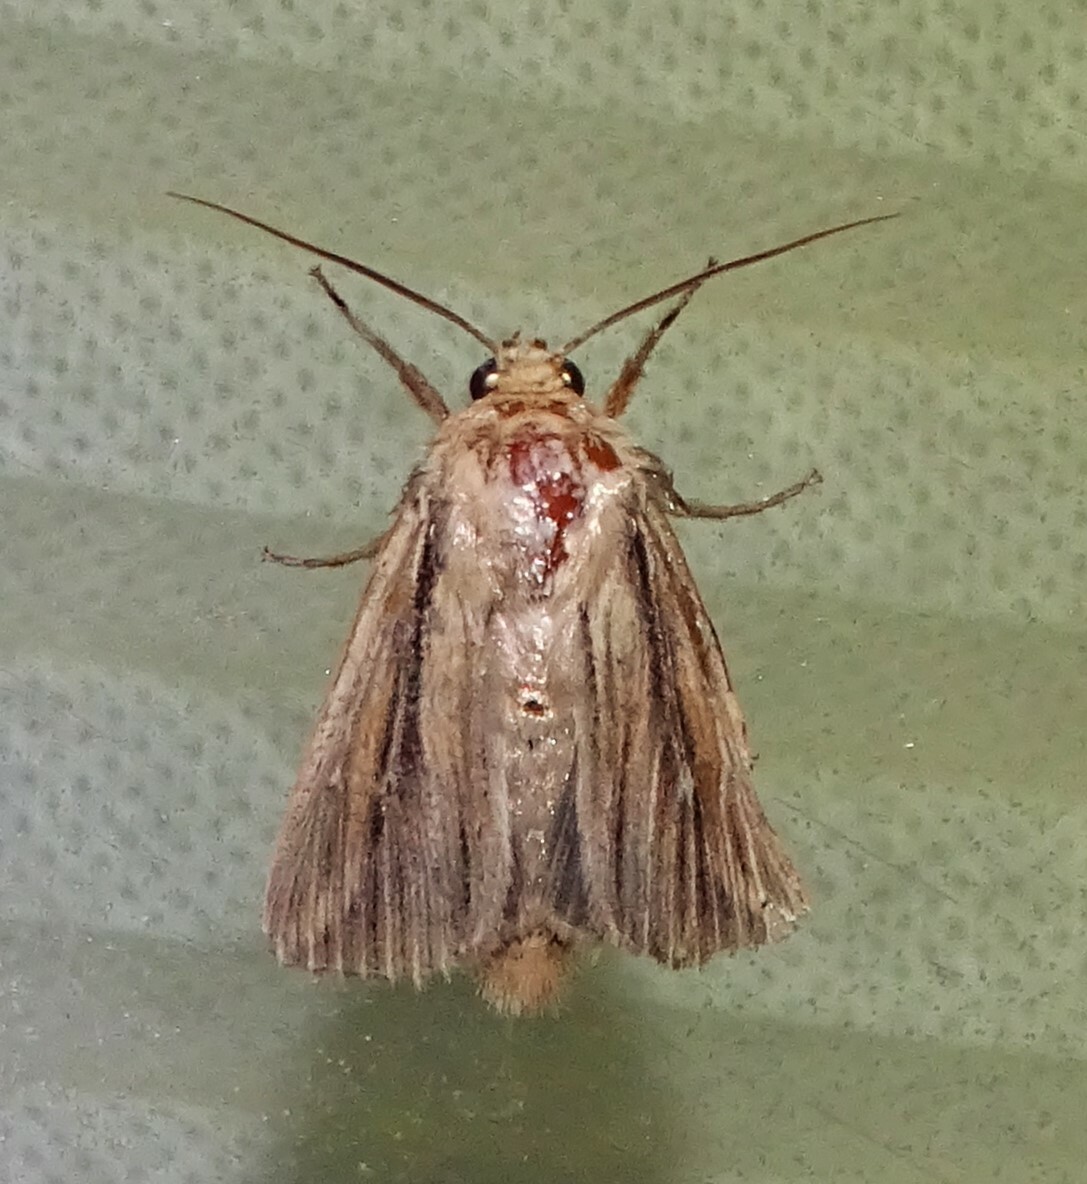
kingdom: Animalia
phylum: Arthropoda
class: Insecta
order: Lepidoptera
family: Noctuidae
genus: Leucania
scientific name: Leucania commoides
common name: Two-lined wainscot
